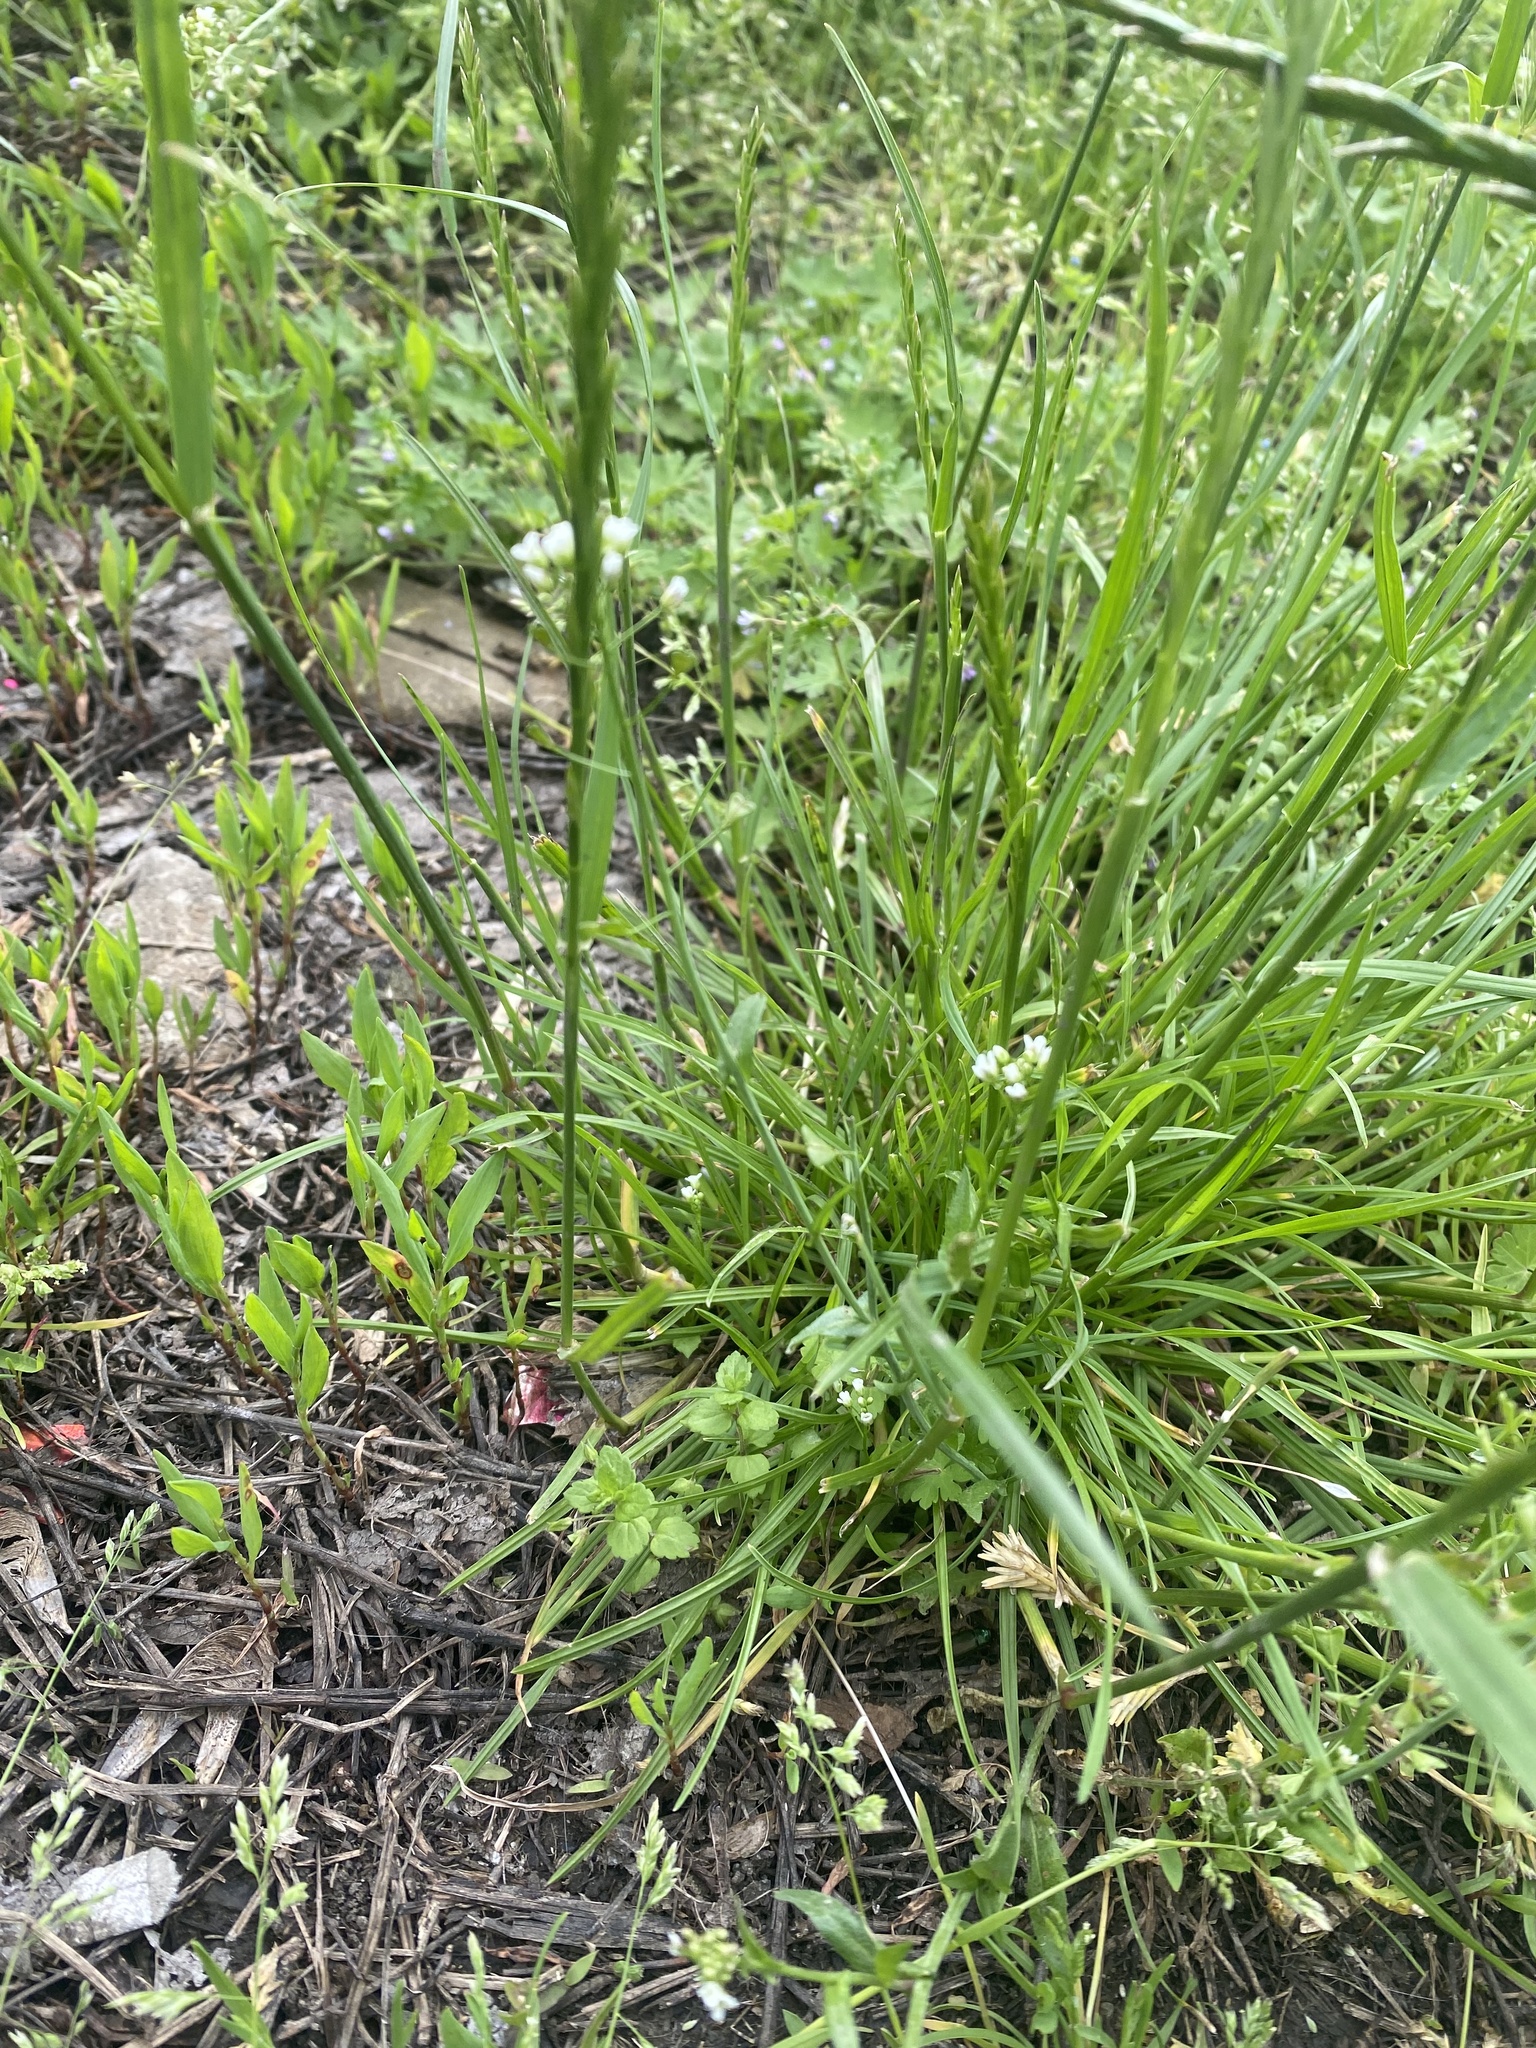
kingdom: Plantae
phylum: Tracheophyta
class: Liliopsida
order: Poales
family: Poaceae
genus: Lolium
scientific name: Lolium perenne
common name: Perennial ryegrass
